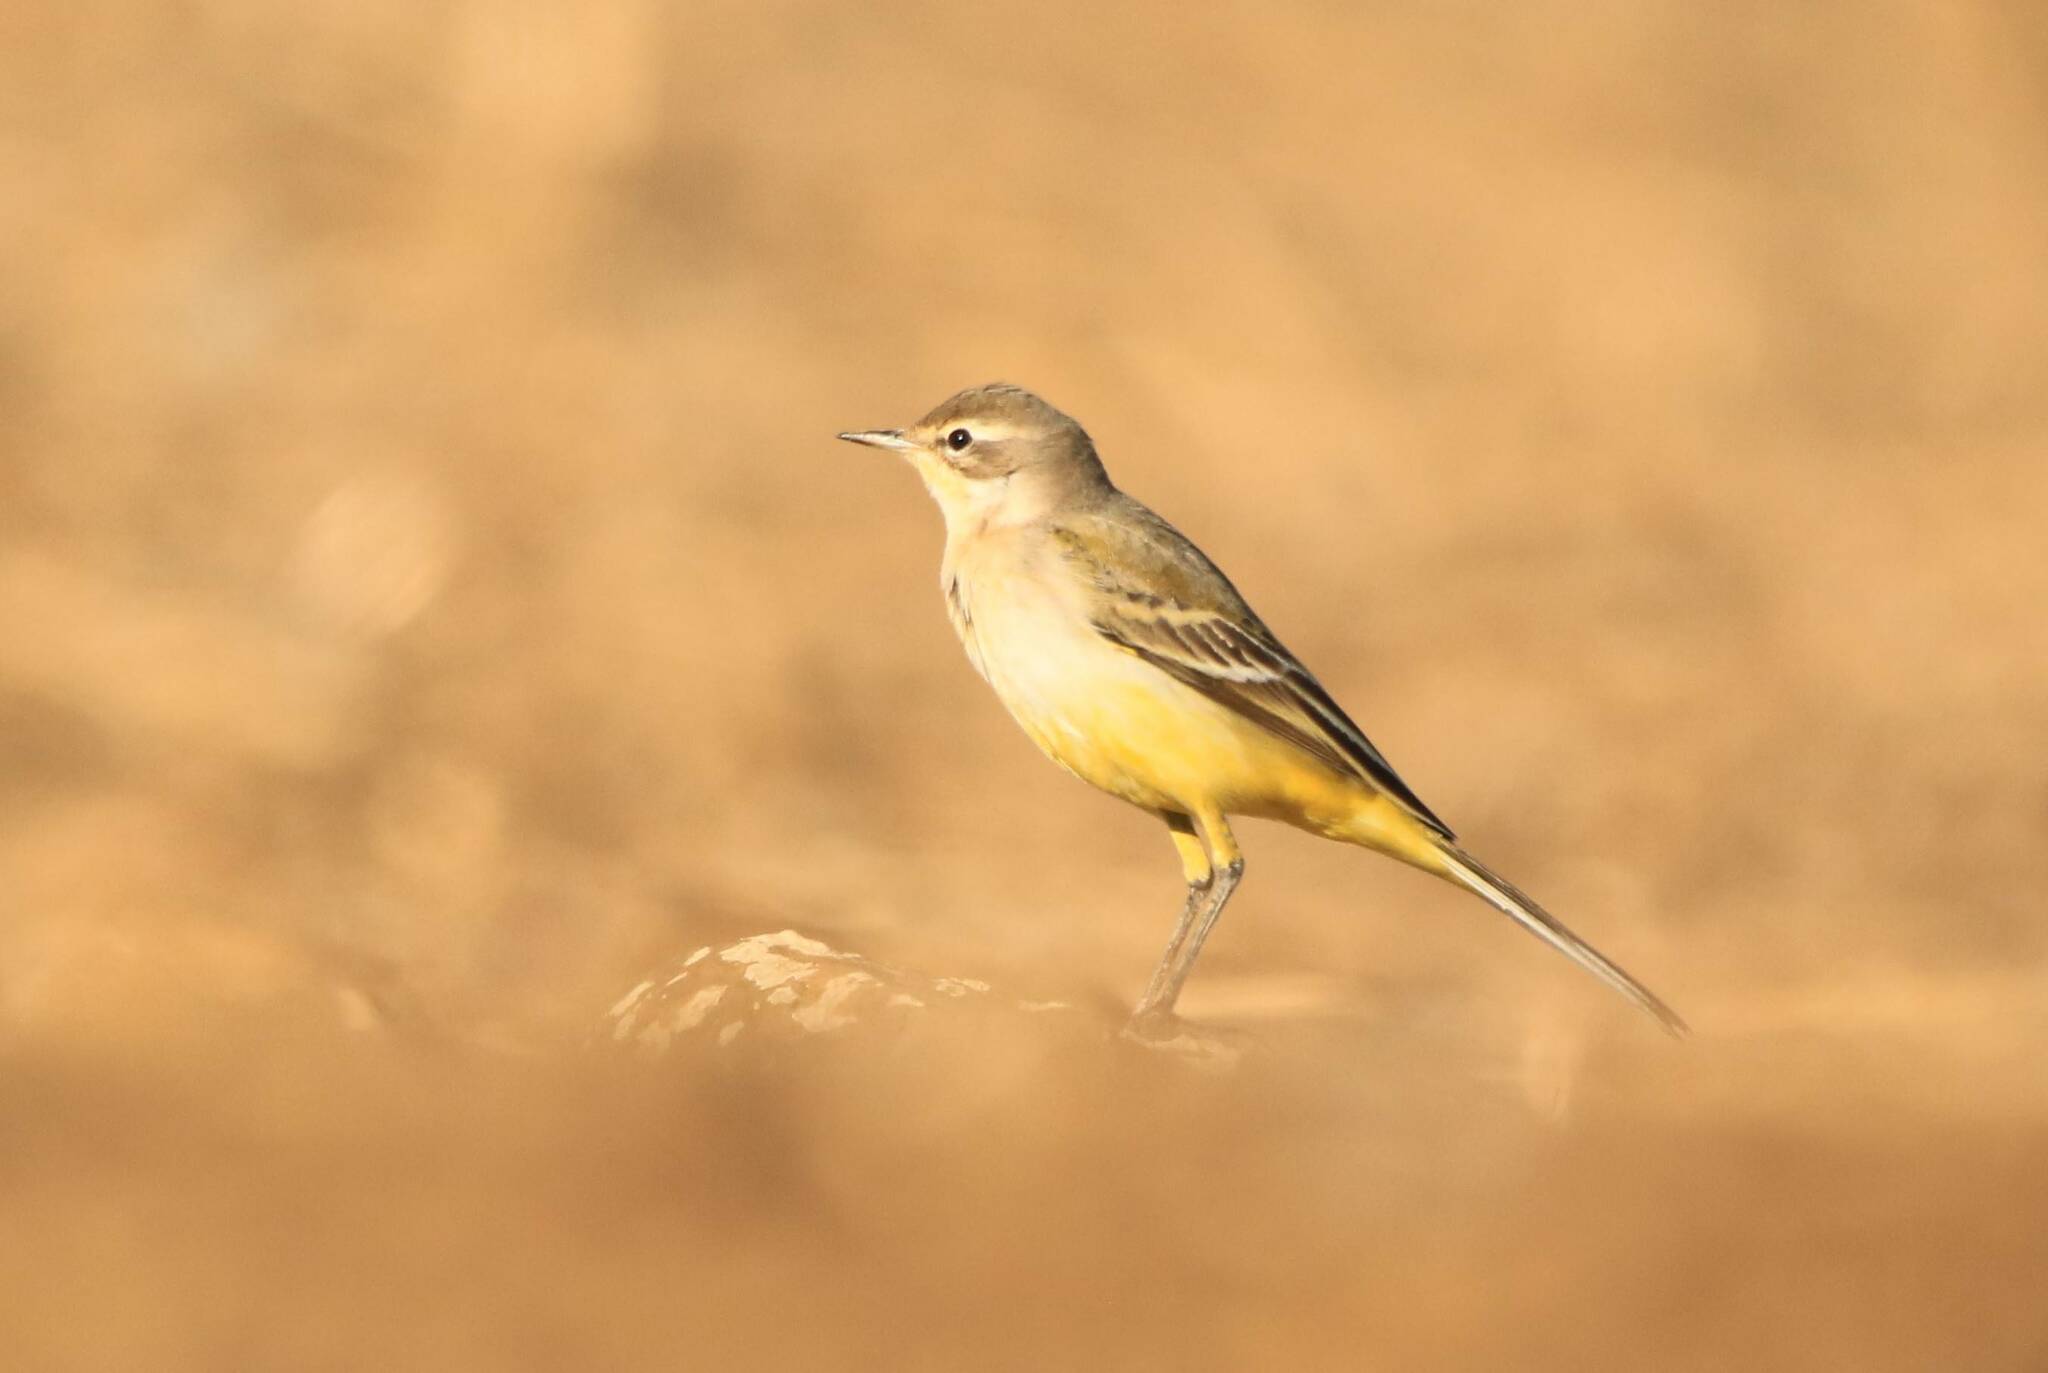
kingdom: Animalia
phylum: Chordata
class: Aves
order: Passeriformes
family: Motacillidae
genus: Motacilla
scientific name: Motacilla flava
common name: Western yellow wagtail
